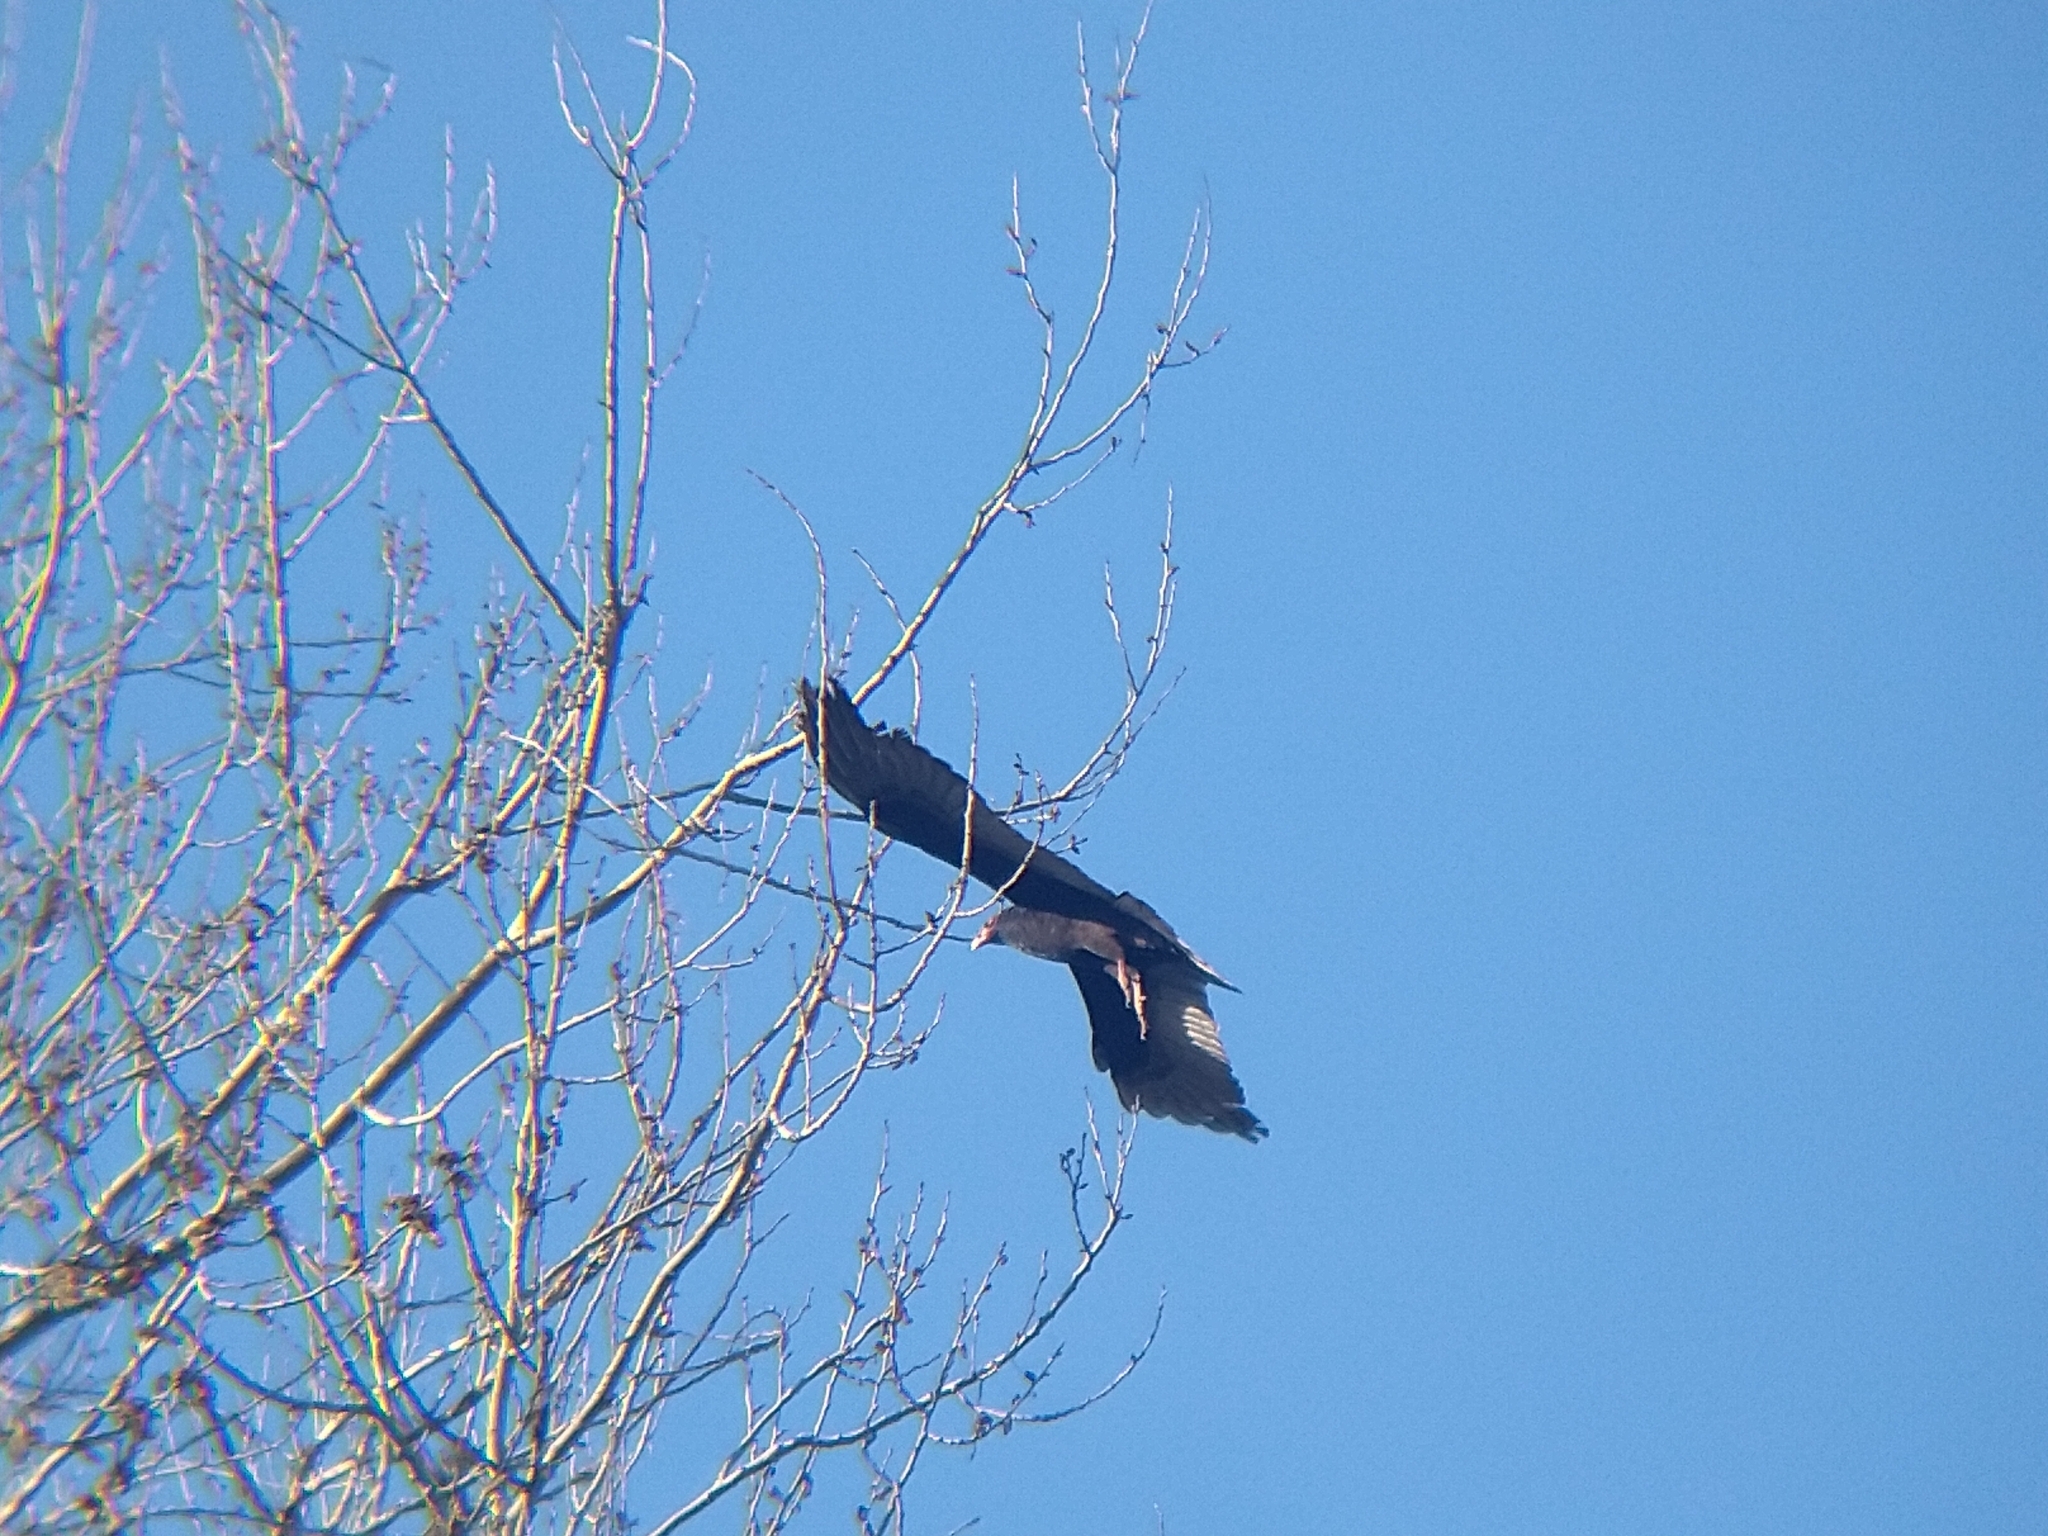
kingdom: Animalia
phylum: Chordata
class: Aves
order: Accipitriformes
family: Cathartidae
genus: Cathartes
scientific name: Cathartes aura
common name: Turkey vulture
